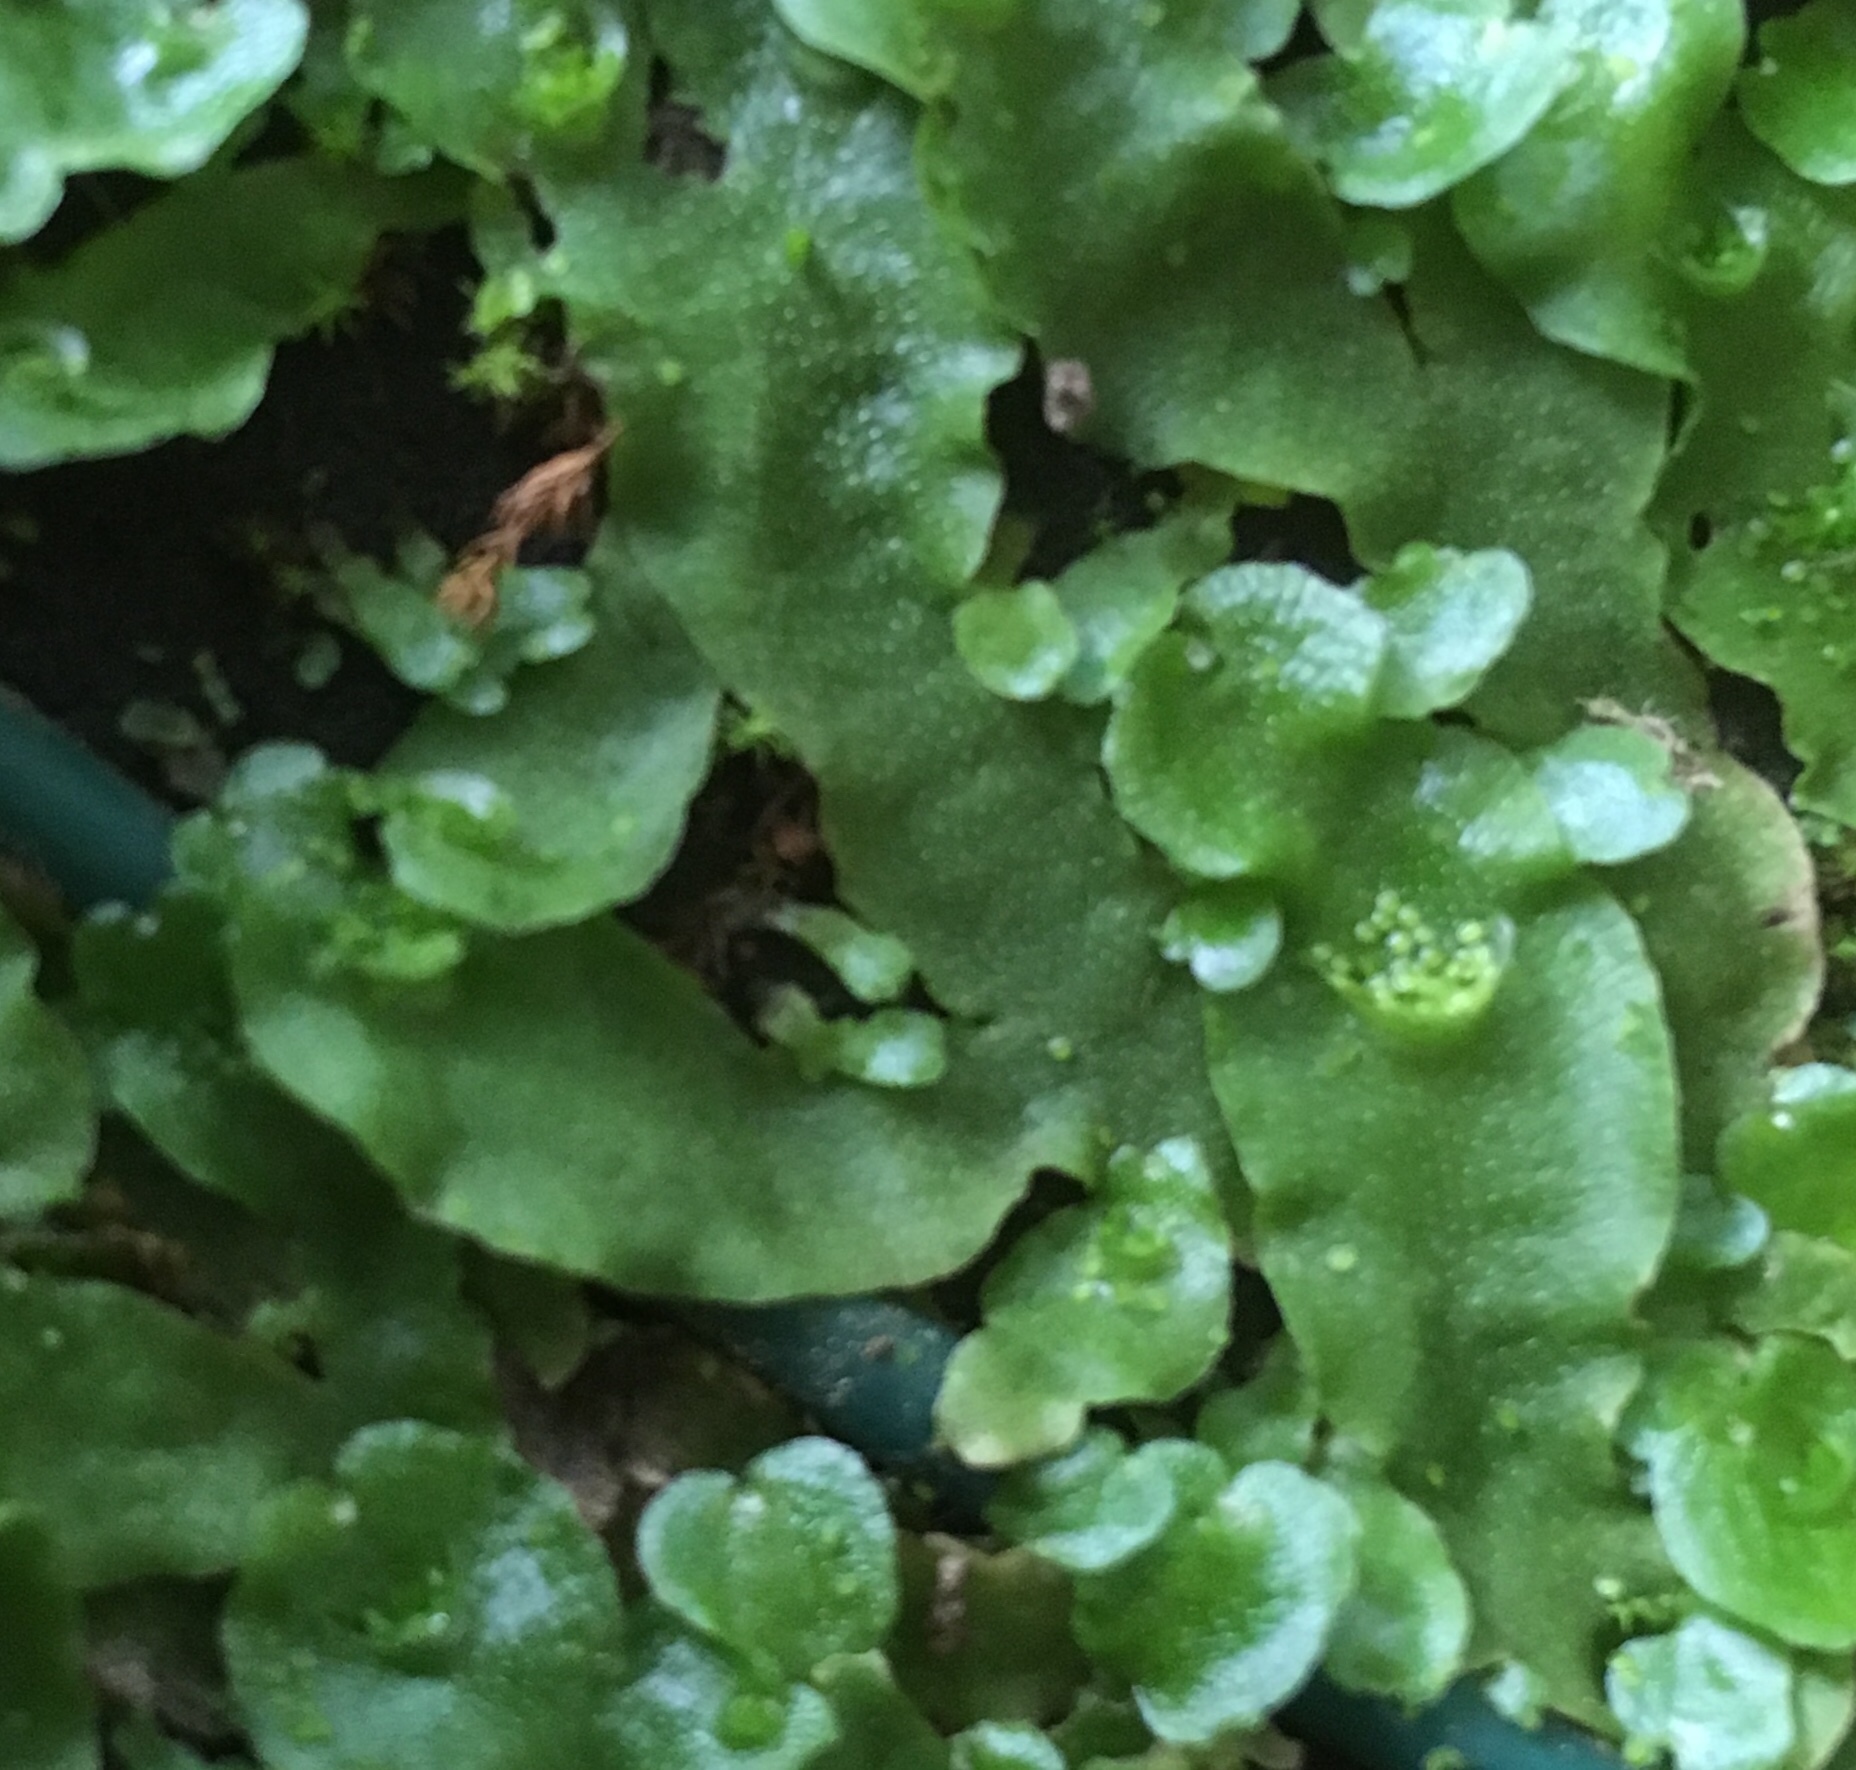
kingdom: Plantae
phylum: Marchantiophyta
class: Marchantiopsida
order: Lunulariales
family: Lunulariaceae
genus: Lunularia
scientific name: Lunularia cruciata
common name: Crescent-cup liverwort
